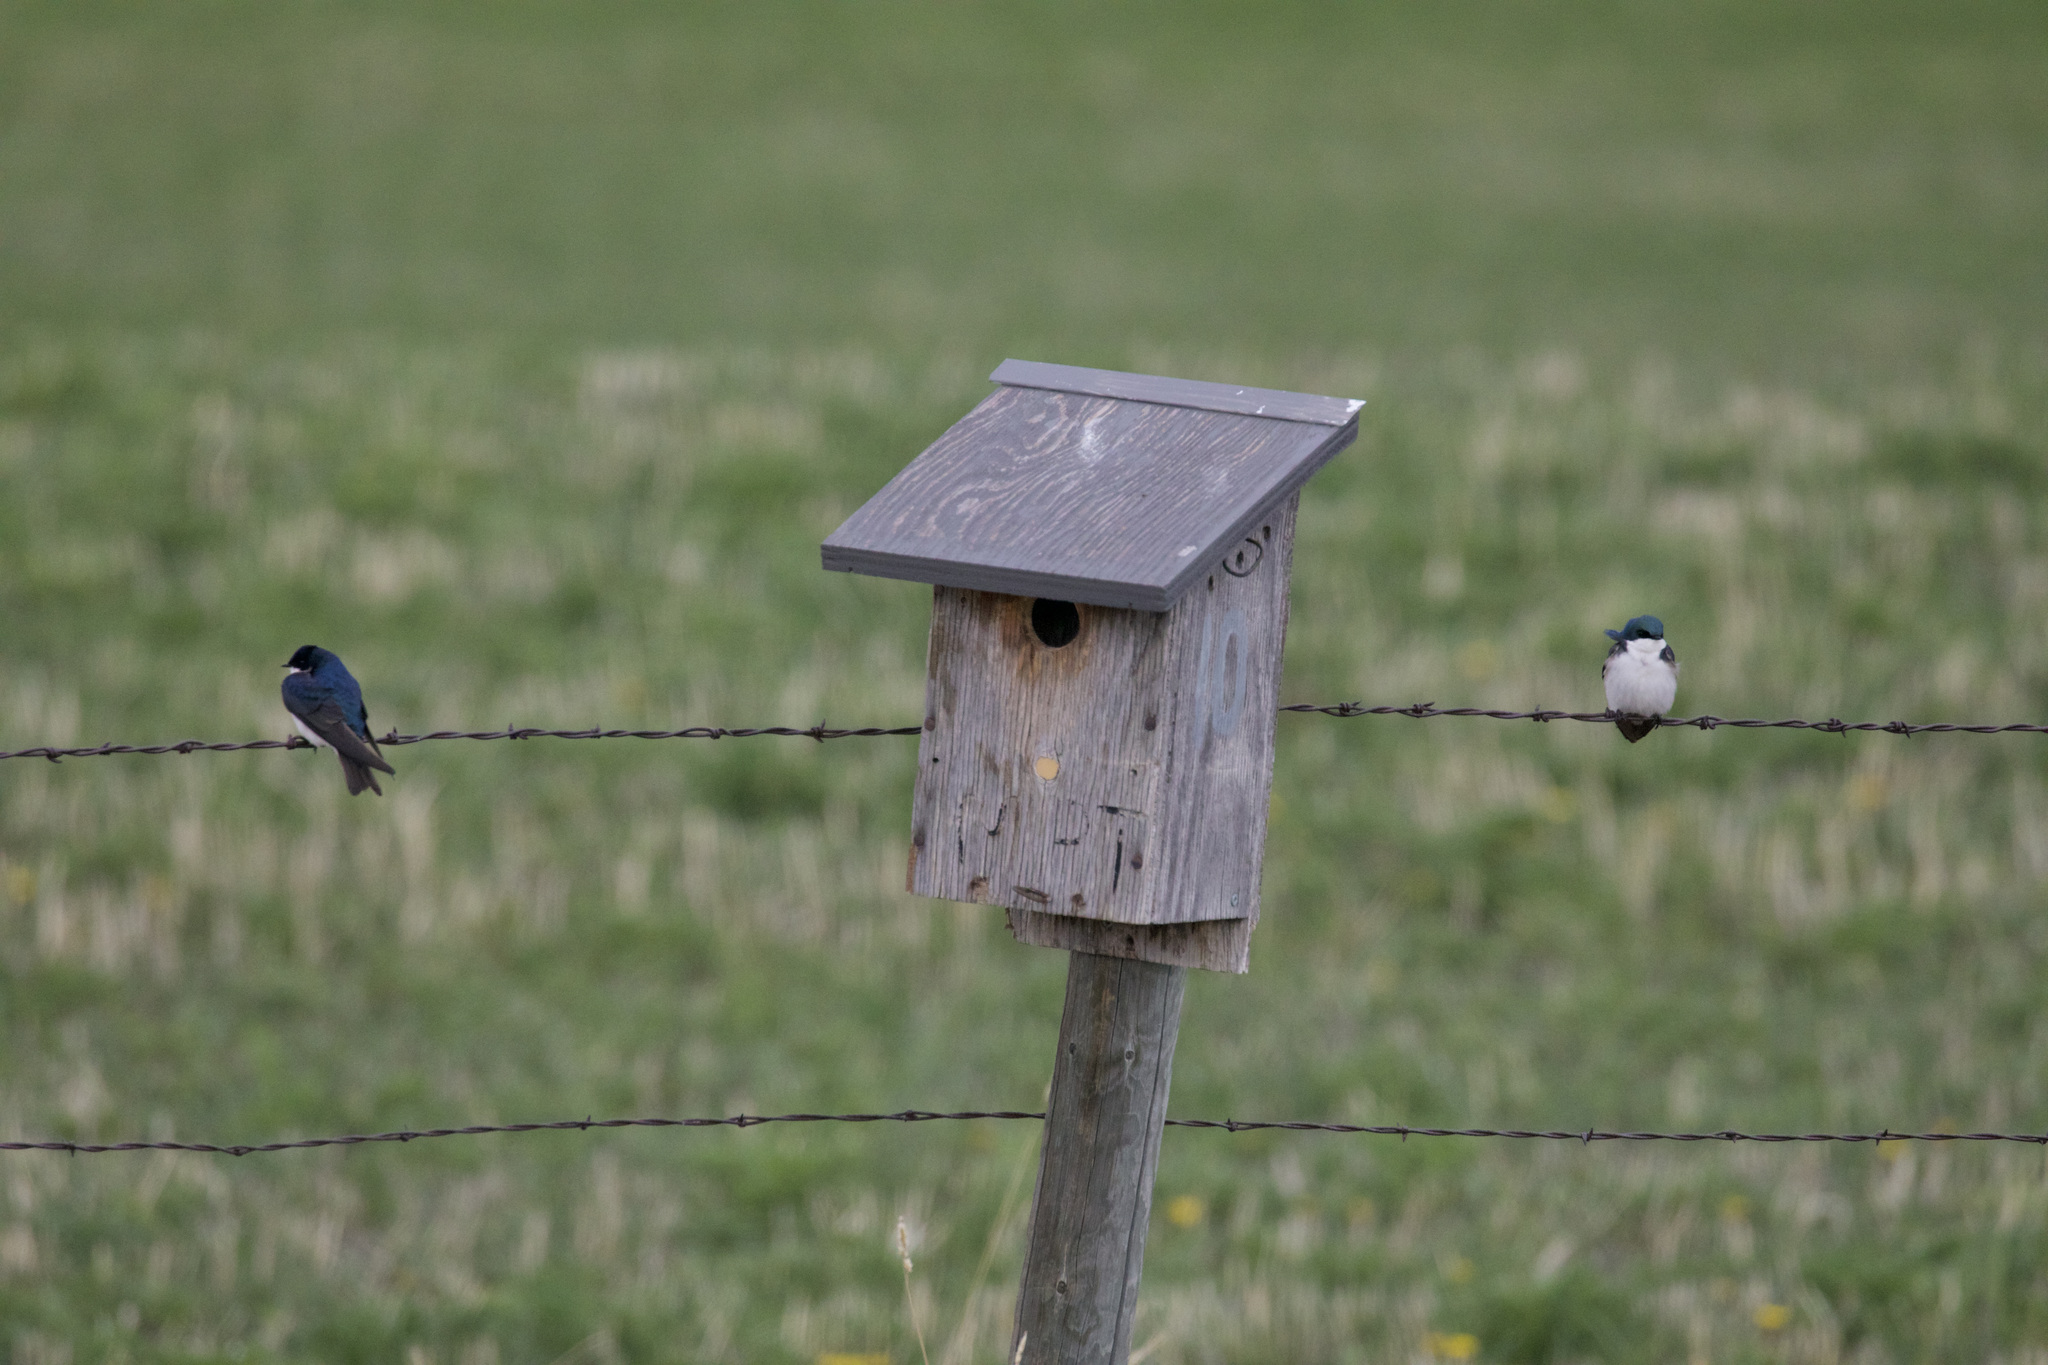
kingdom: Animalia
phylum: Chordata
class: Aves
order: Passeriformes
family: Hirundinidae
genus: Tachycineta
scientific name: Tachycineta bicolor
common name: Tree swallow
